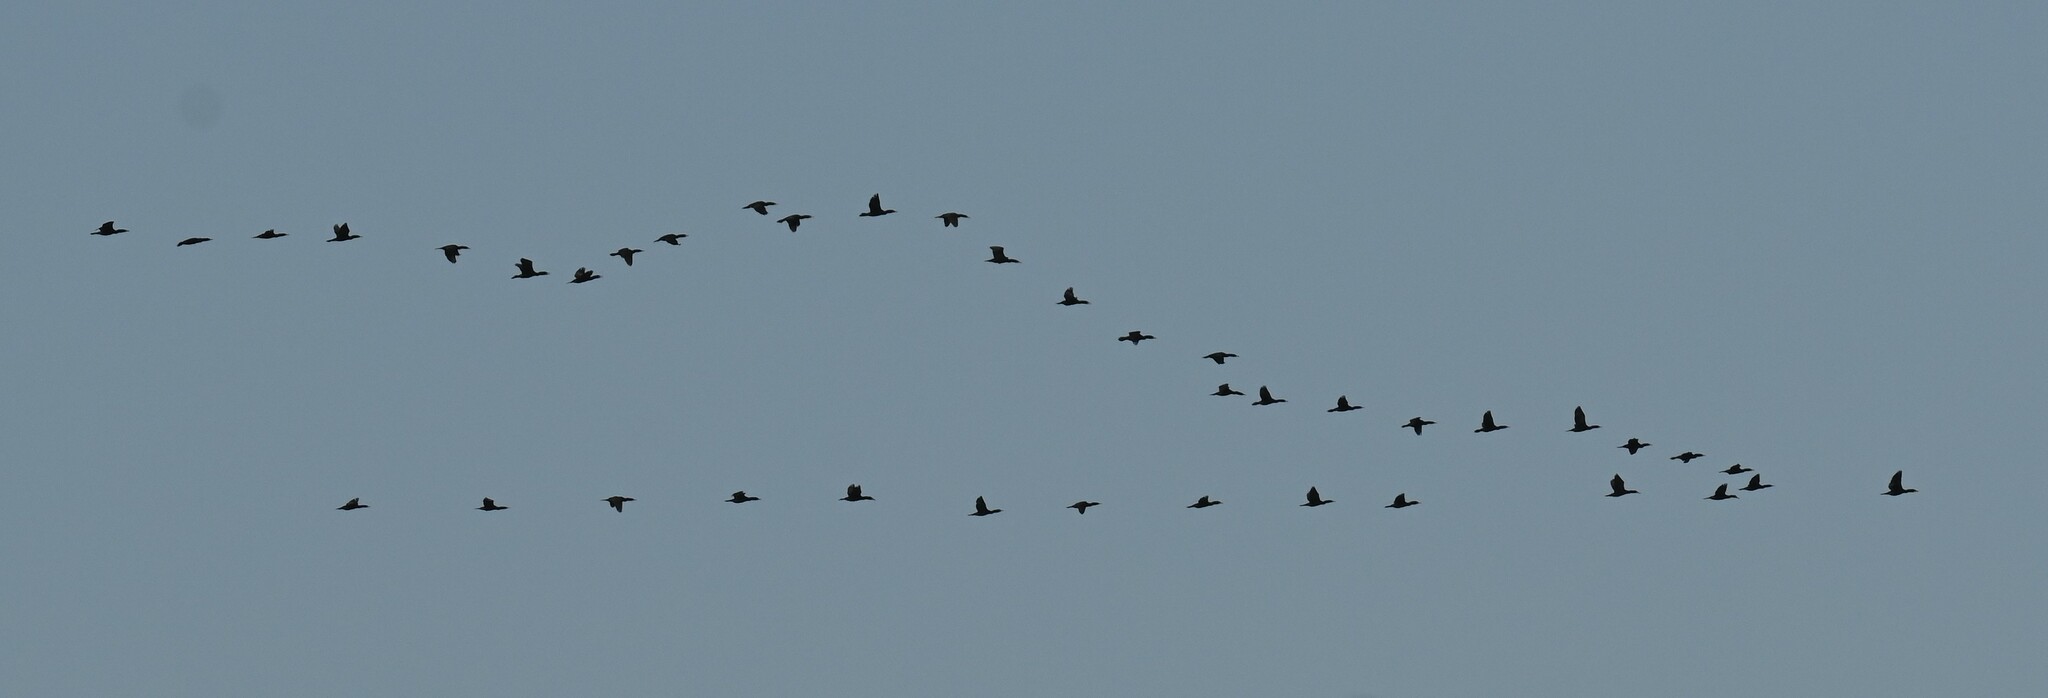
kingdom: Animalia
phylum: Chordata
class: Aves
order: Suliformes
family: Phalacrocoracidae
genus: Phalacrocorax
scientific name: Phalacrocorax auritus
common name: Double-crested cormorant
